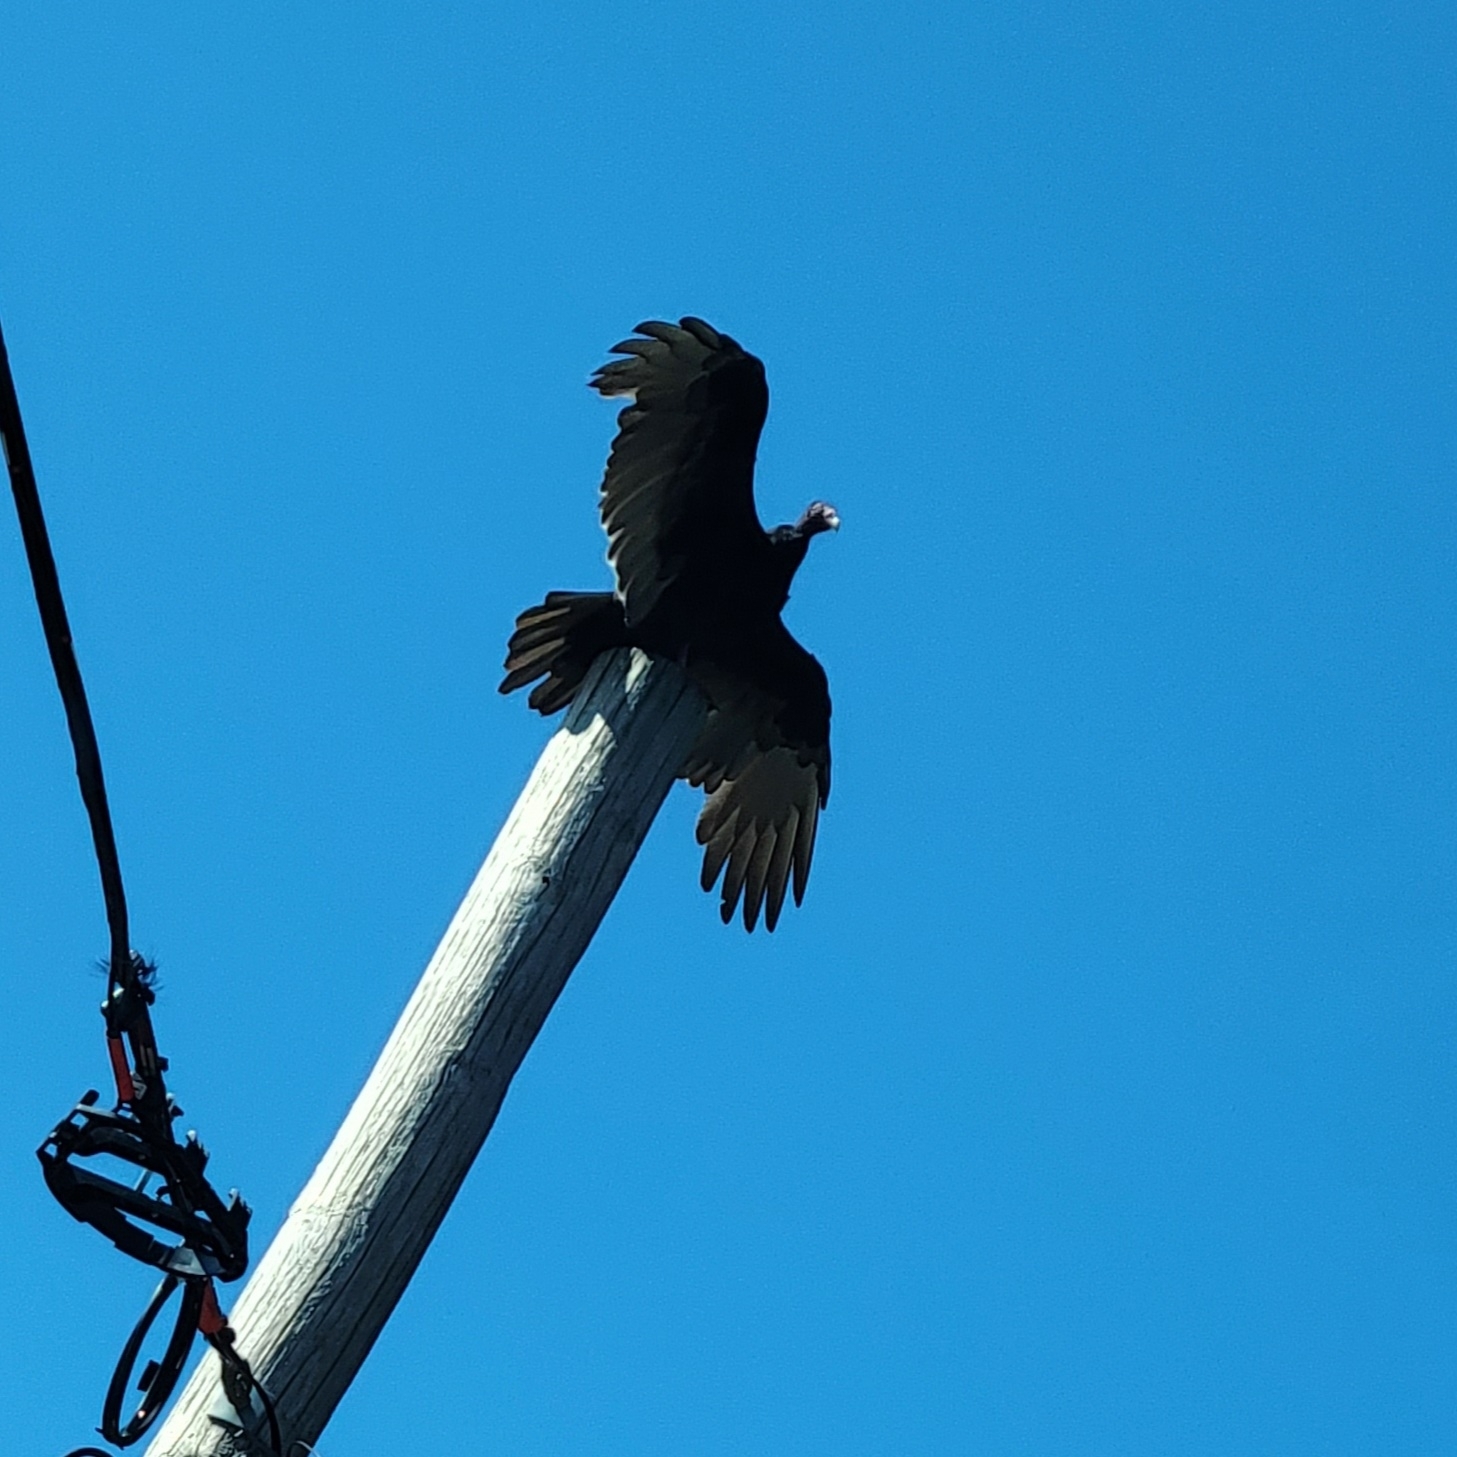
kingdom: Animalia
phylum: Chordata
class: Aves
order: Accipitriformes
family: Cathartidae
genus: Cathartes
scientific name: Cathartes aura
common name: Turkey vulture
